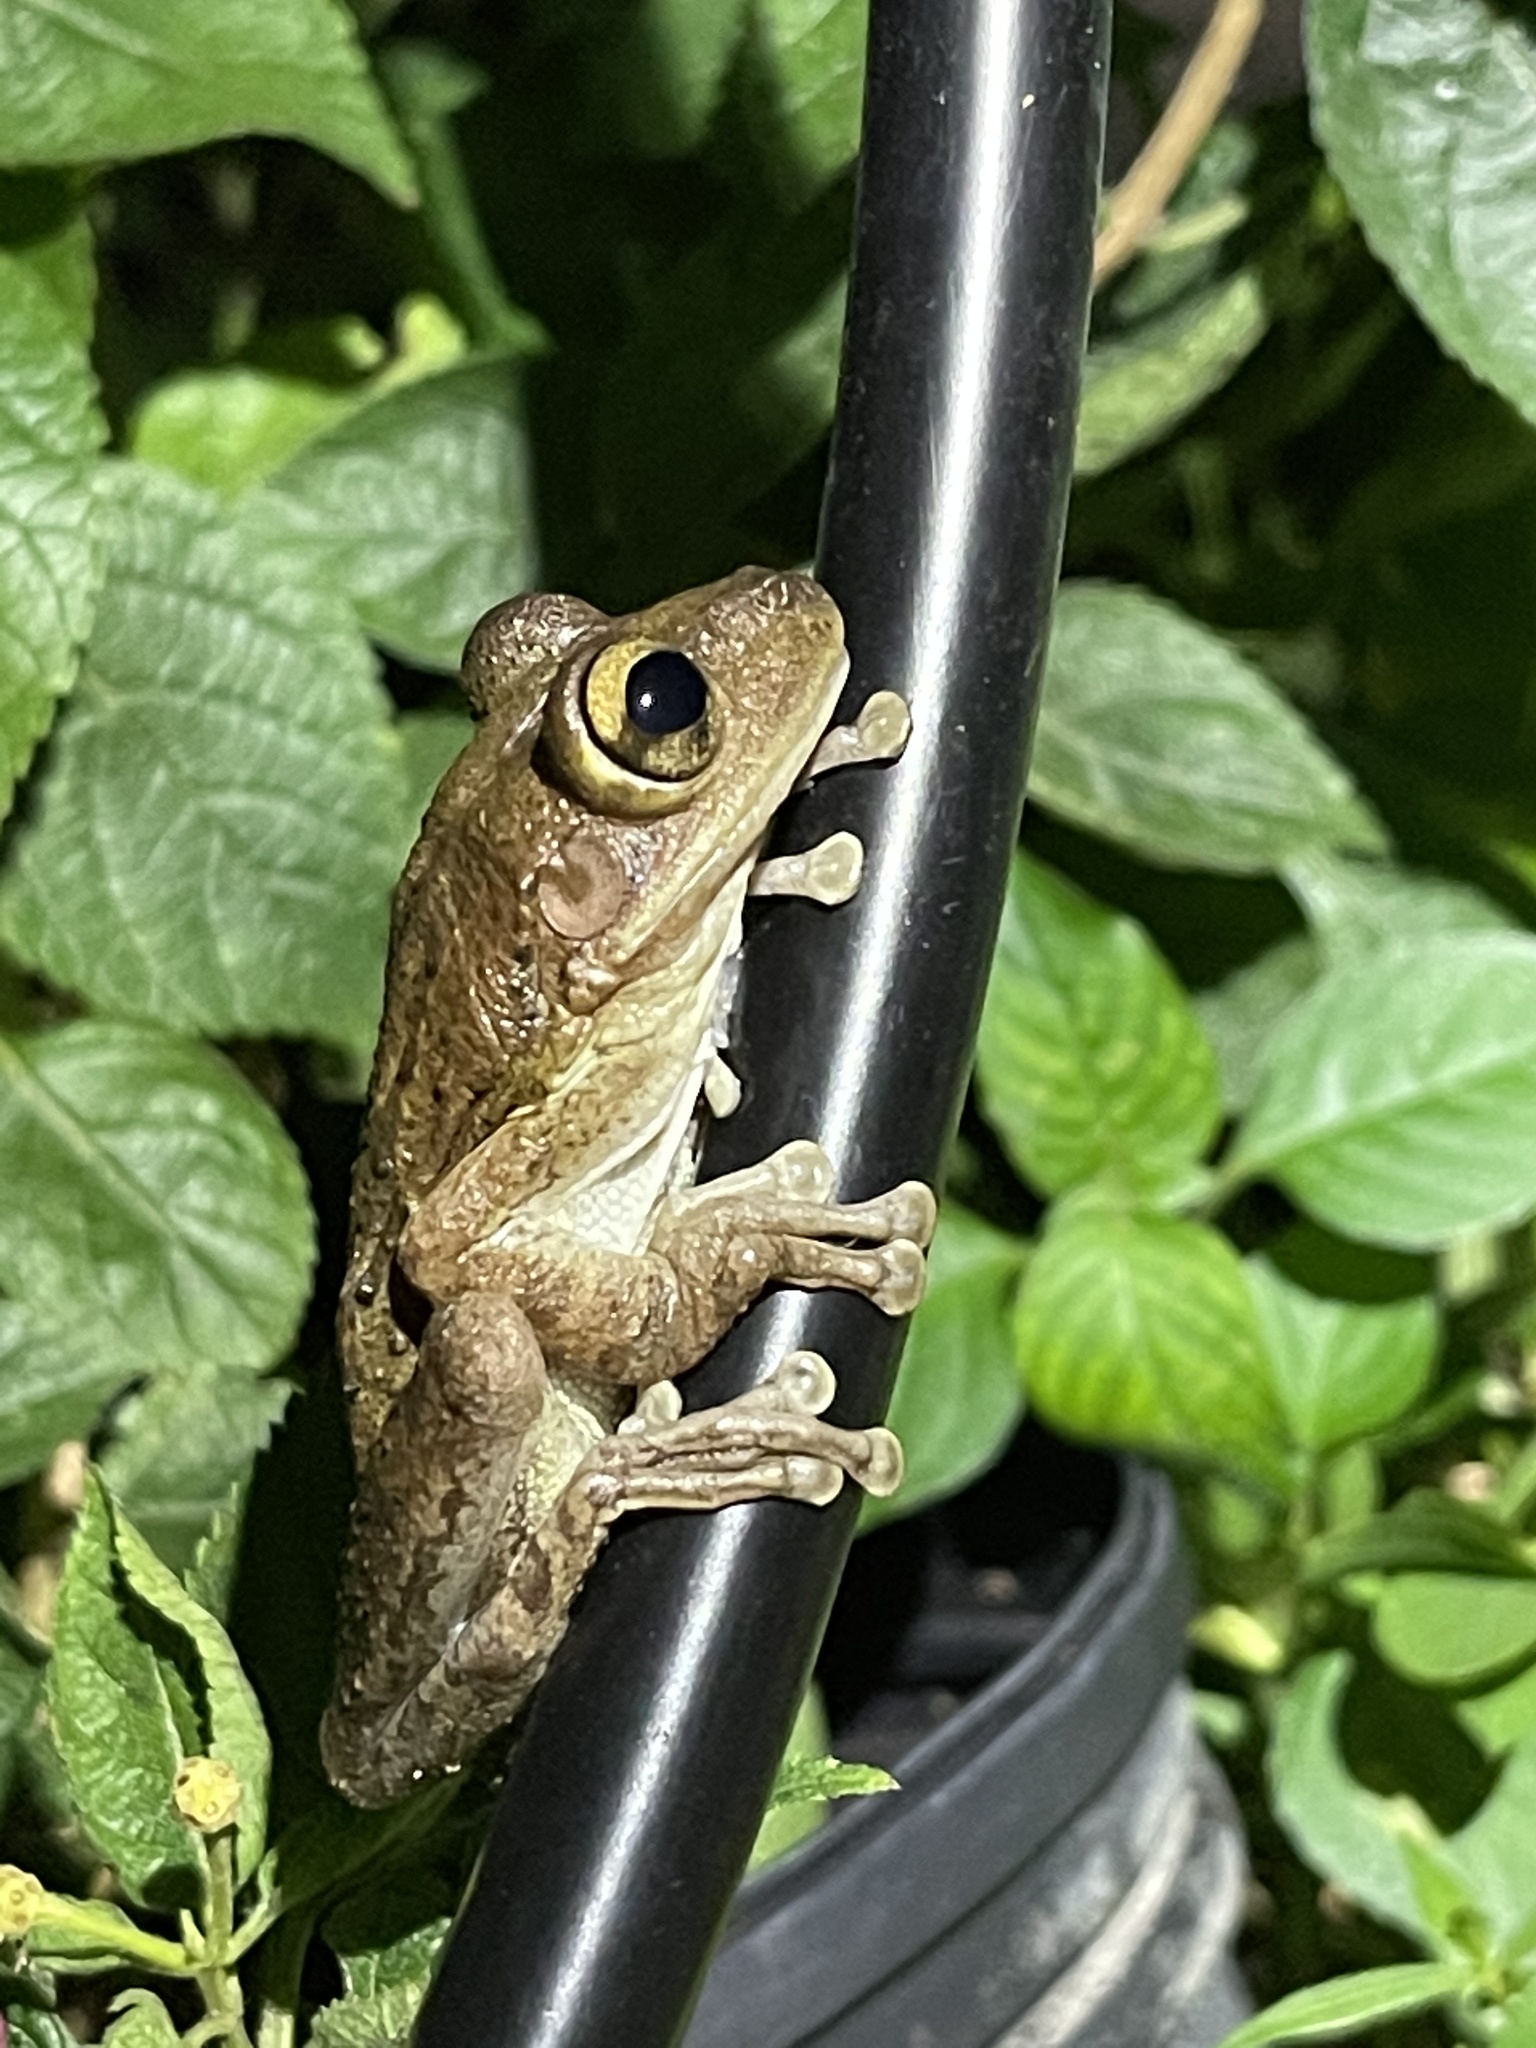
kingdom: Animalia
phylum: Chordata
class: Amphibia
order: Anura
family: Hylidae
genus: Osteopilus
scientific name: Osteopilus septentrionalis
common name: Cuban treefrog
